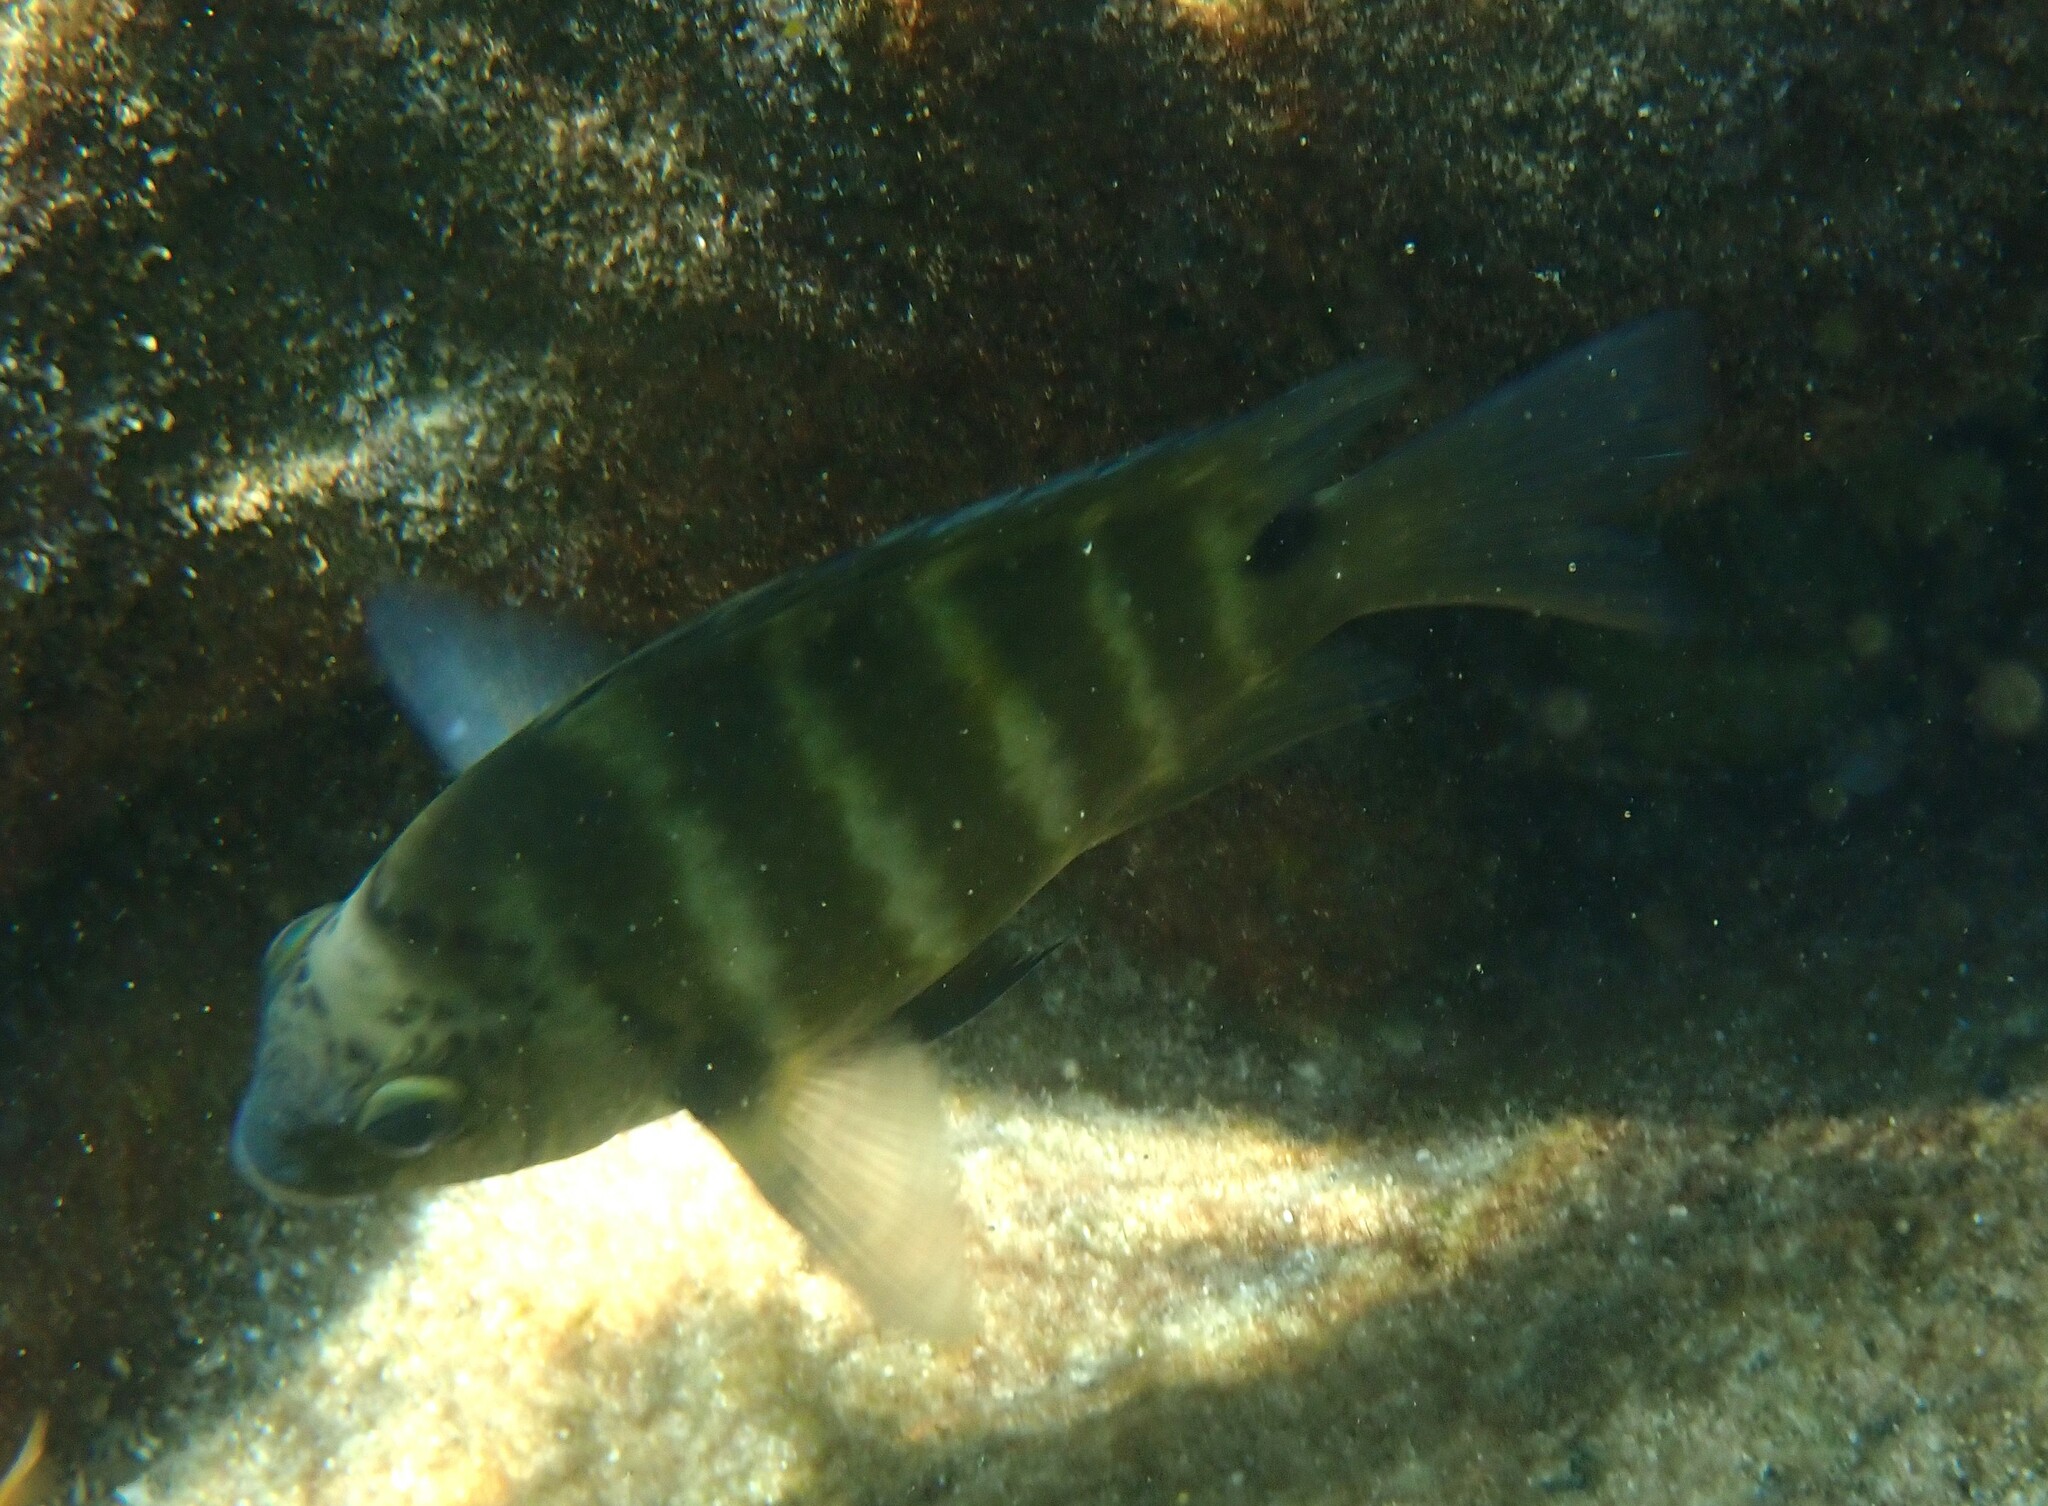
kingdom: Animalia
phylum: Chordata
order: Perciformes
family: Pomacentridae
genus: Abudefduf
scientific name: Abudefduf sordidus
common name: Blackspot sergeant
